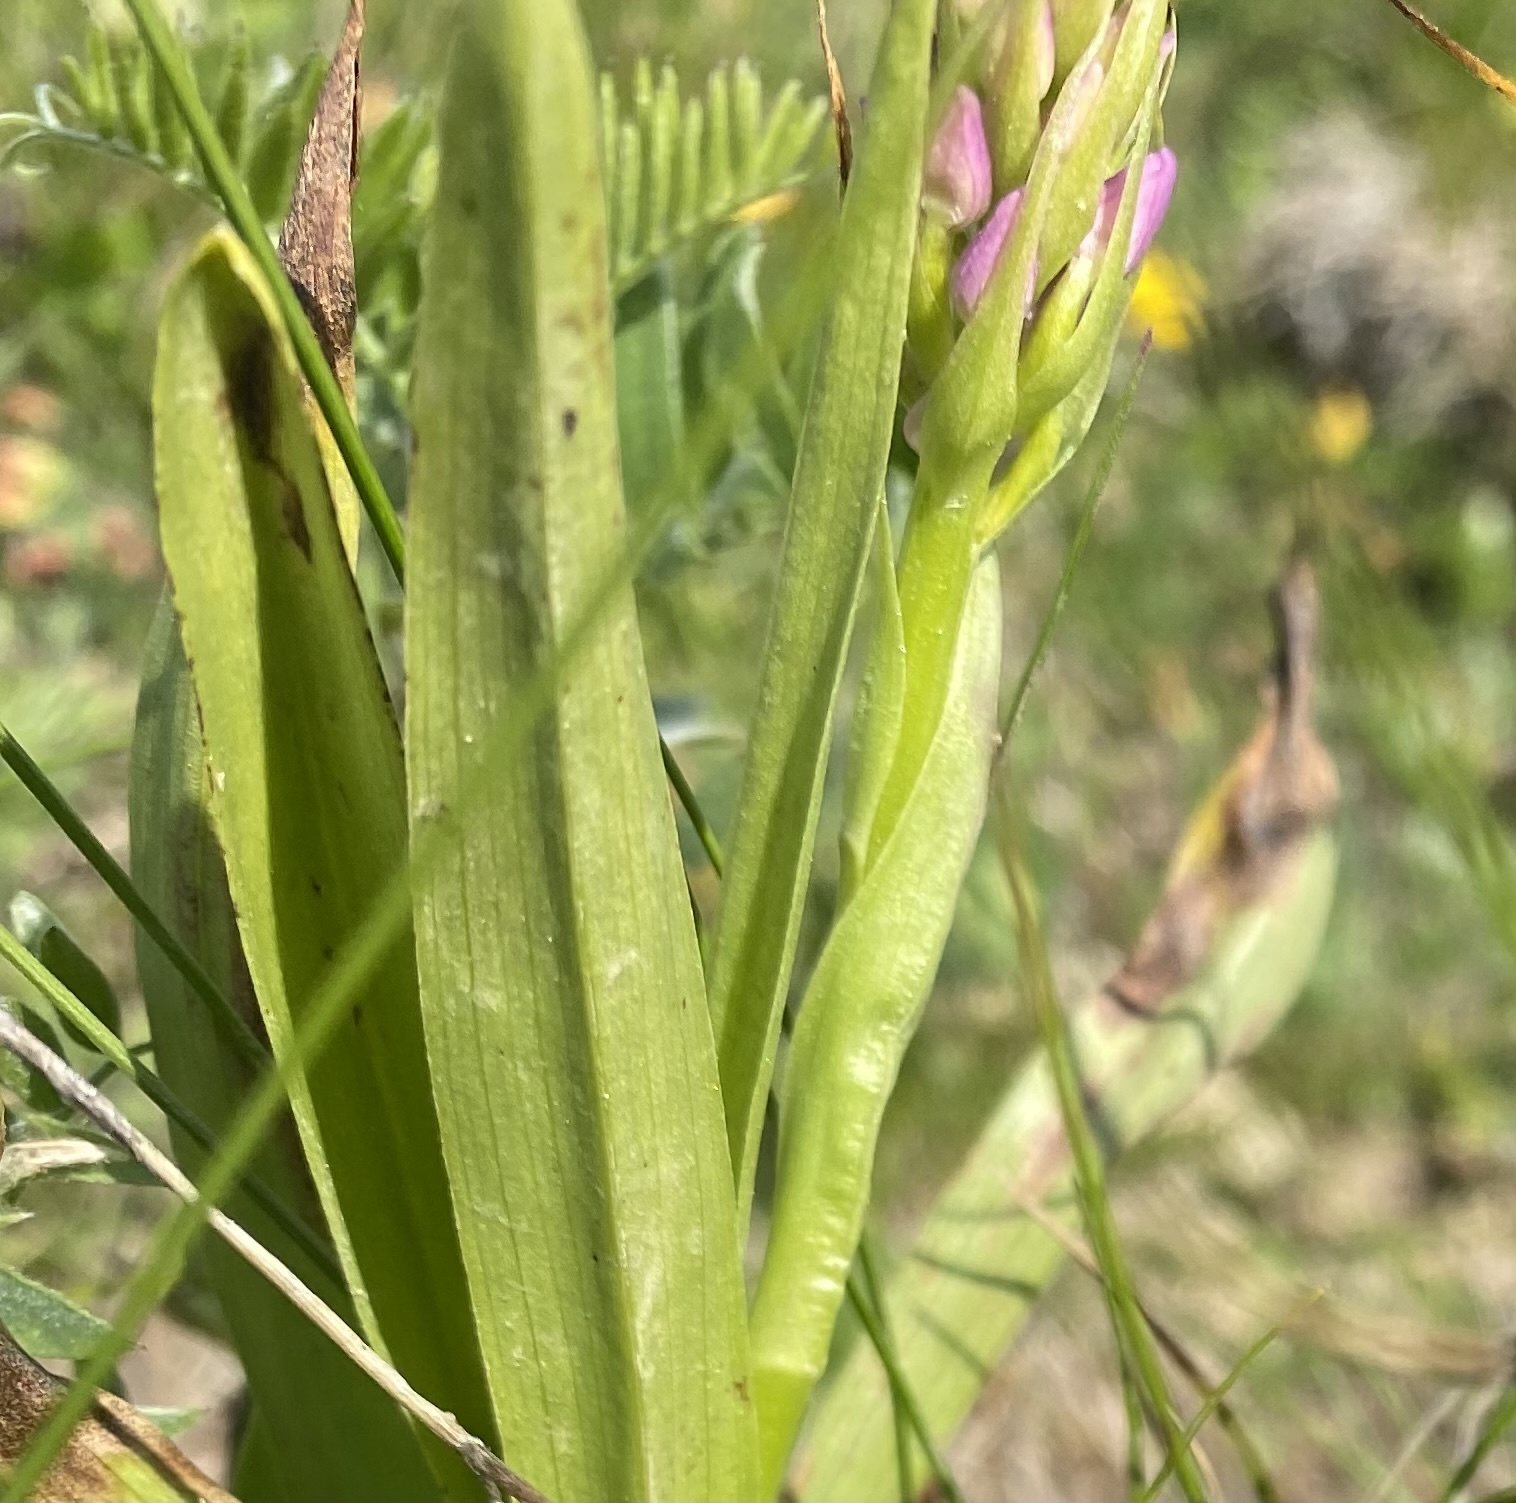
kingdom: Plantae
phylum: Tracheophyta
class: Liliopsida
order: Asparagales
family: Orchidaceae
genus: Gymnadenia
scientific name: Gymnadenia conopsea
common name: Fragrant orchid
